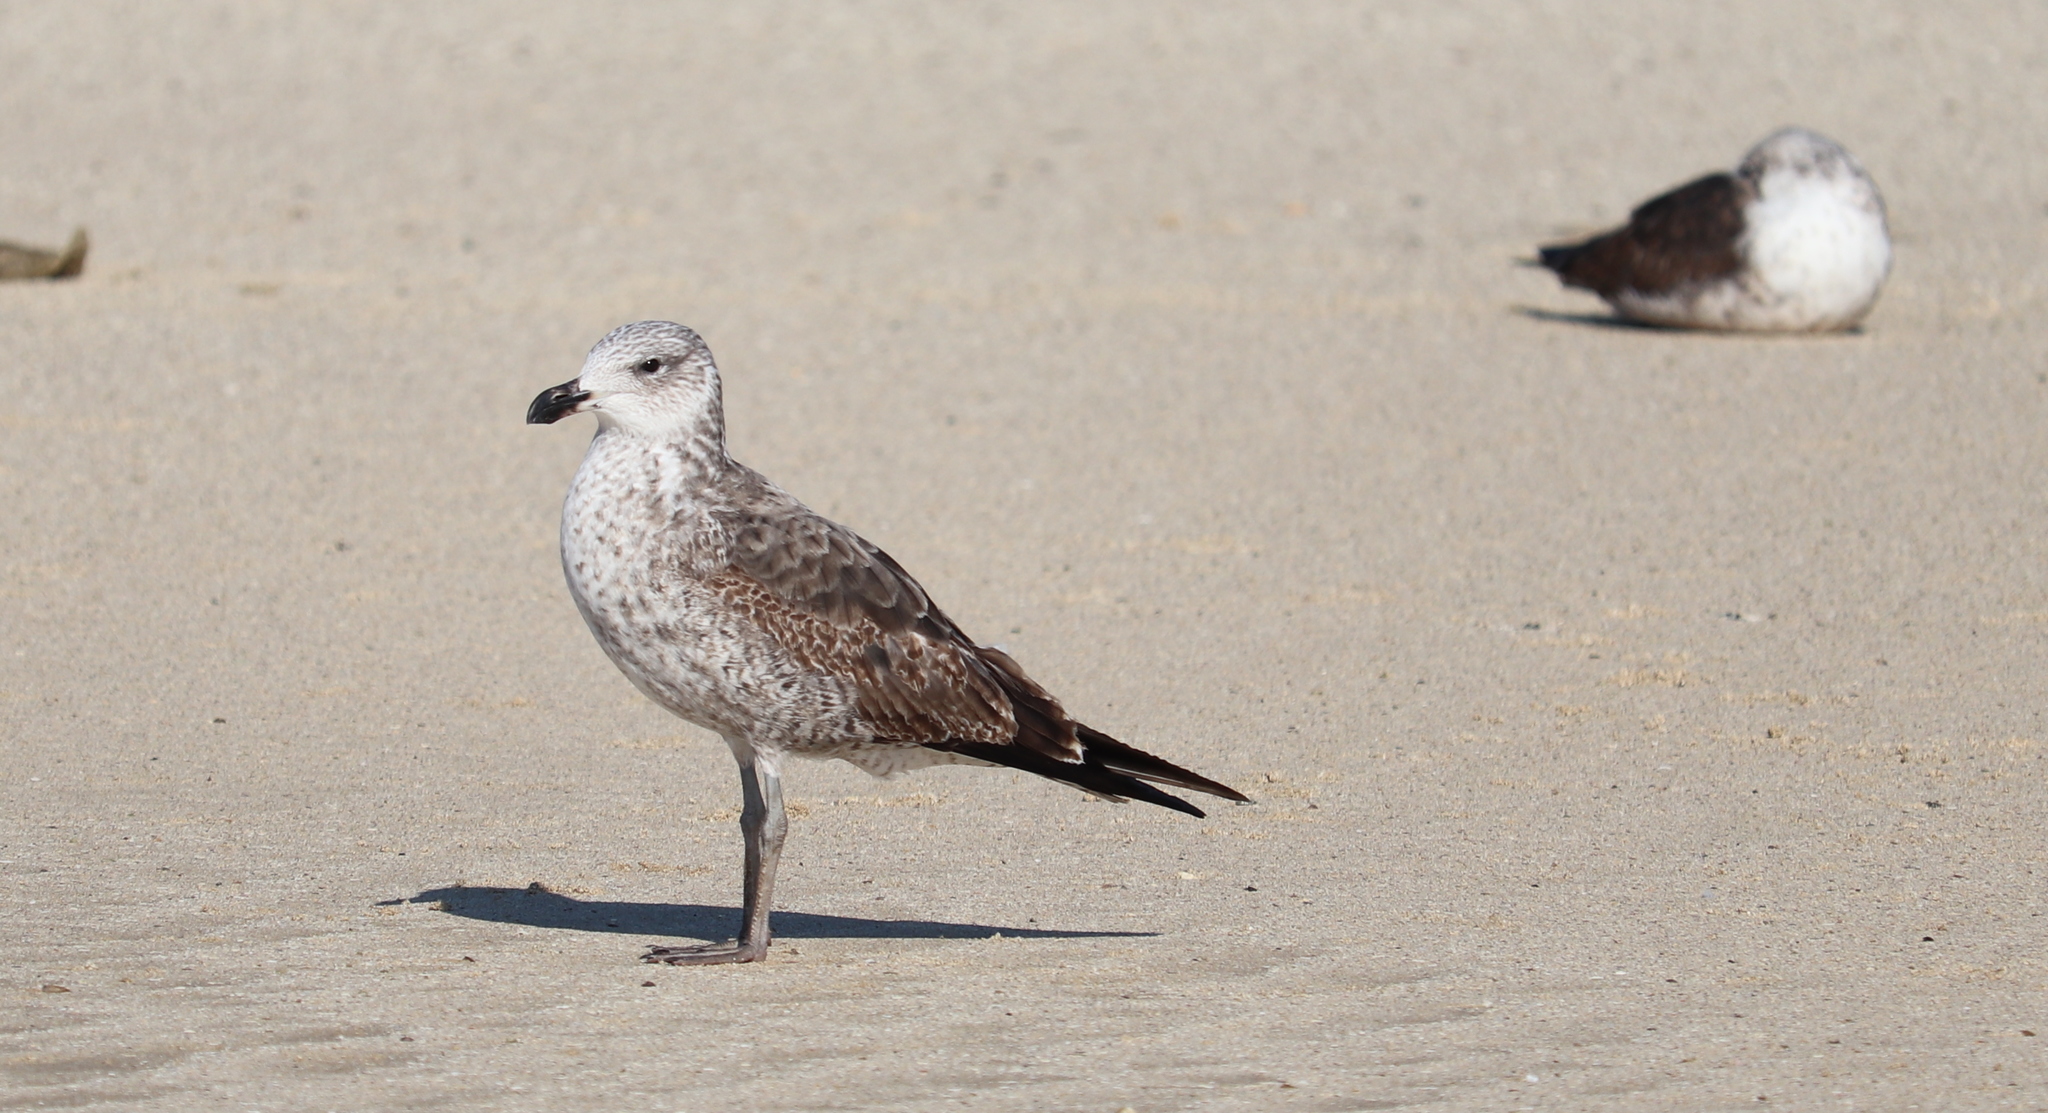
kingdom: Animalia
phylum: Chordata
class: Aves
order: Charadriiformes
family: Laridae
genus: Larus
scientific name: Larus dominicanus
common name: Kelp gull
